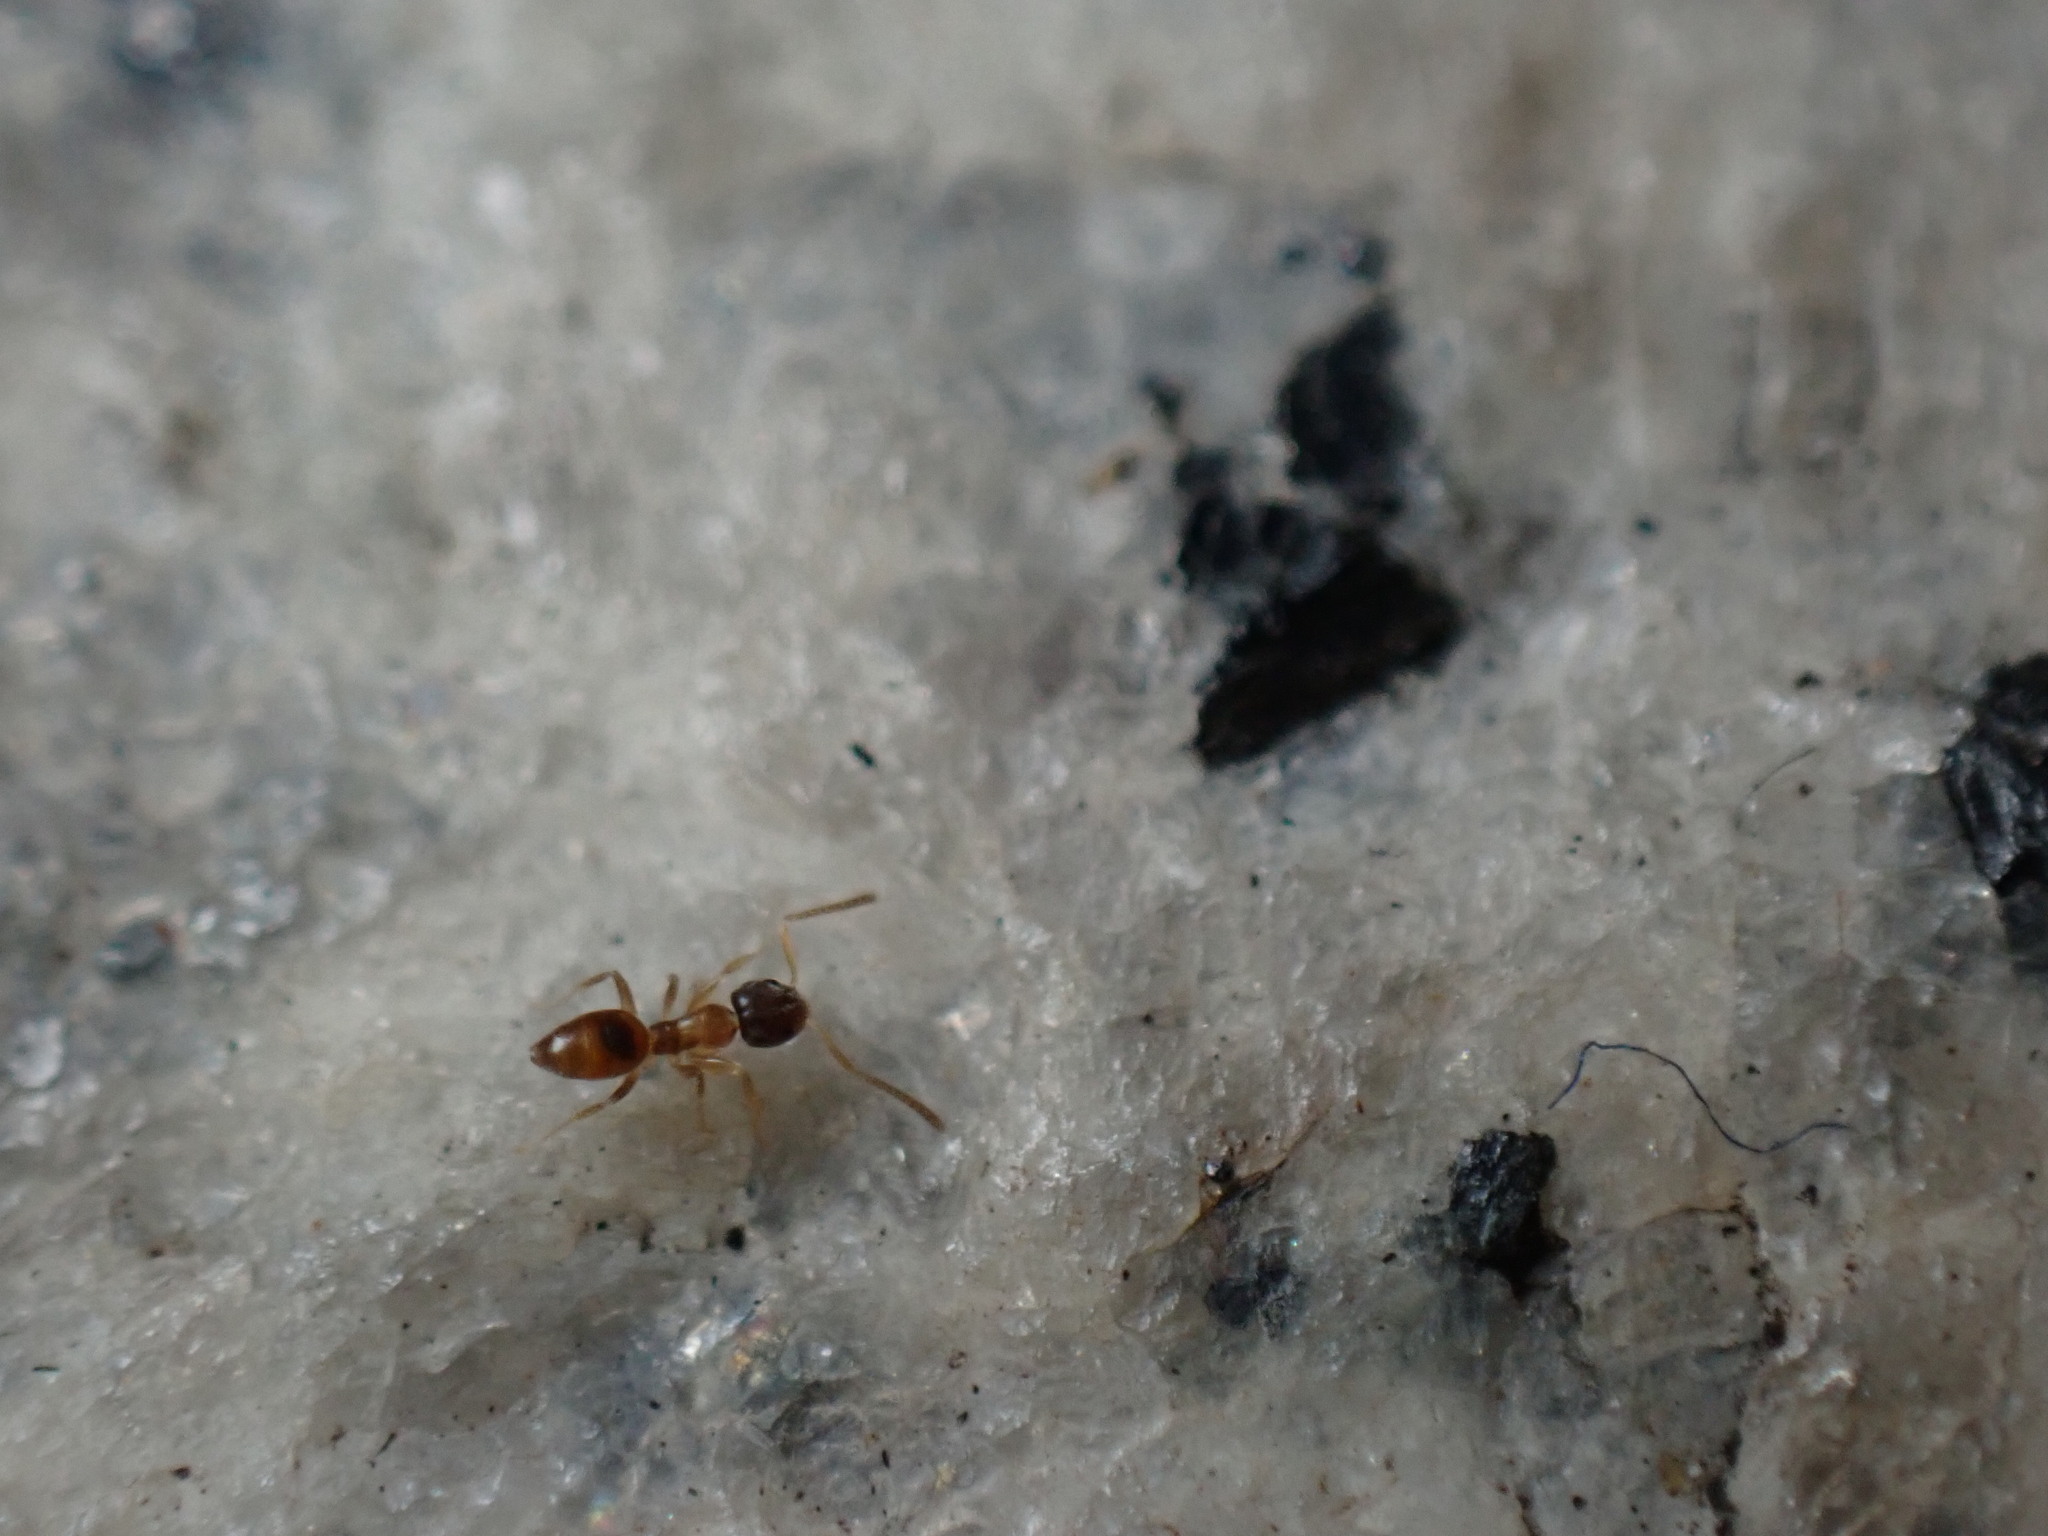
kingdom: Animalia
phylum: Arthropoda
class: Insecta
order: Hymenoptera
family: Formicidae
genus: Tapinoma
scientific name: Tapinoma melanocephalum
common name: Ghost ant
